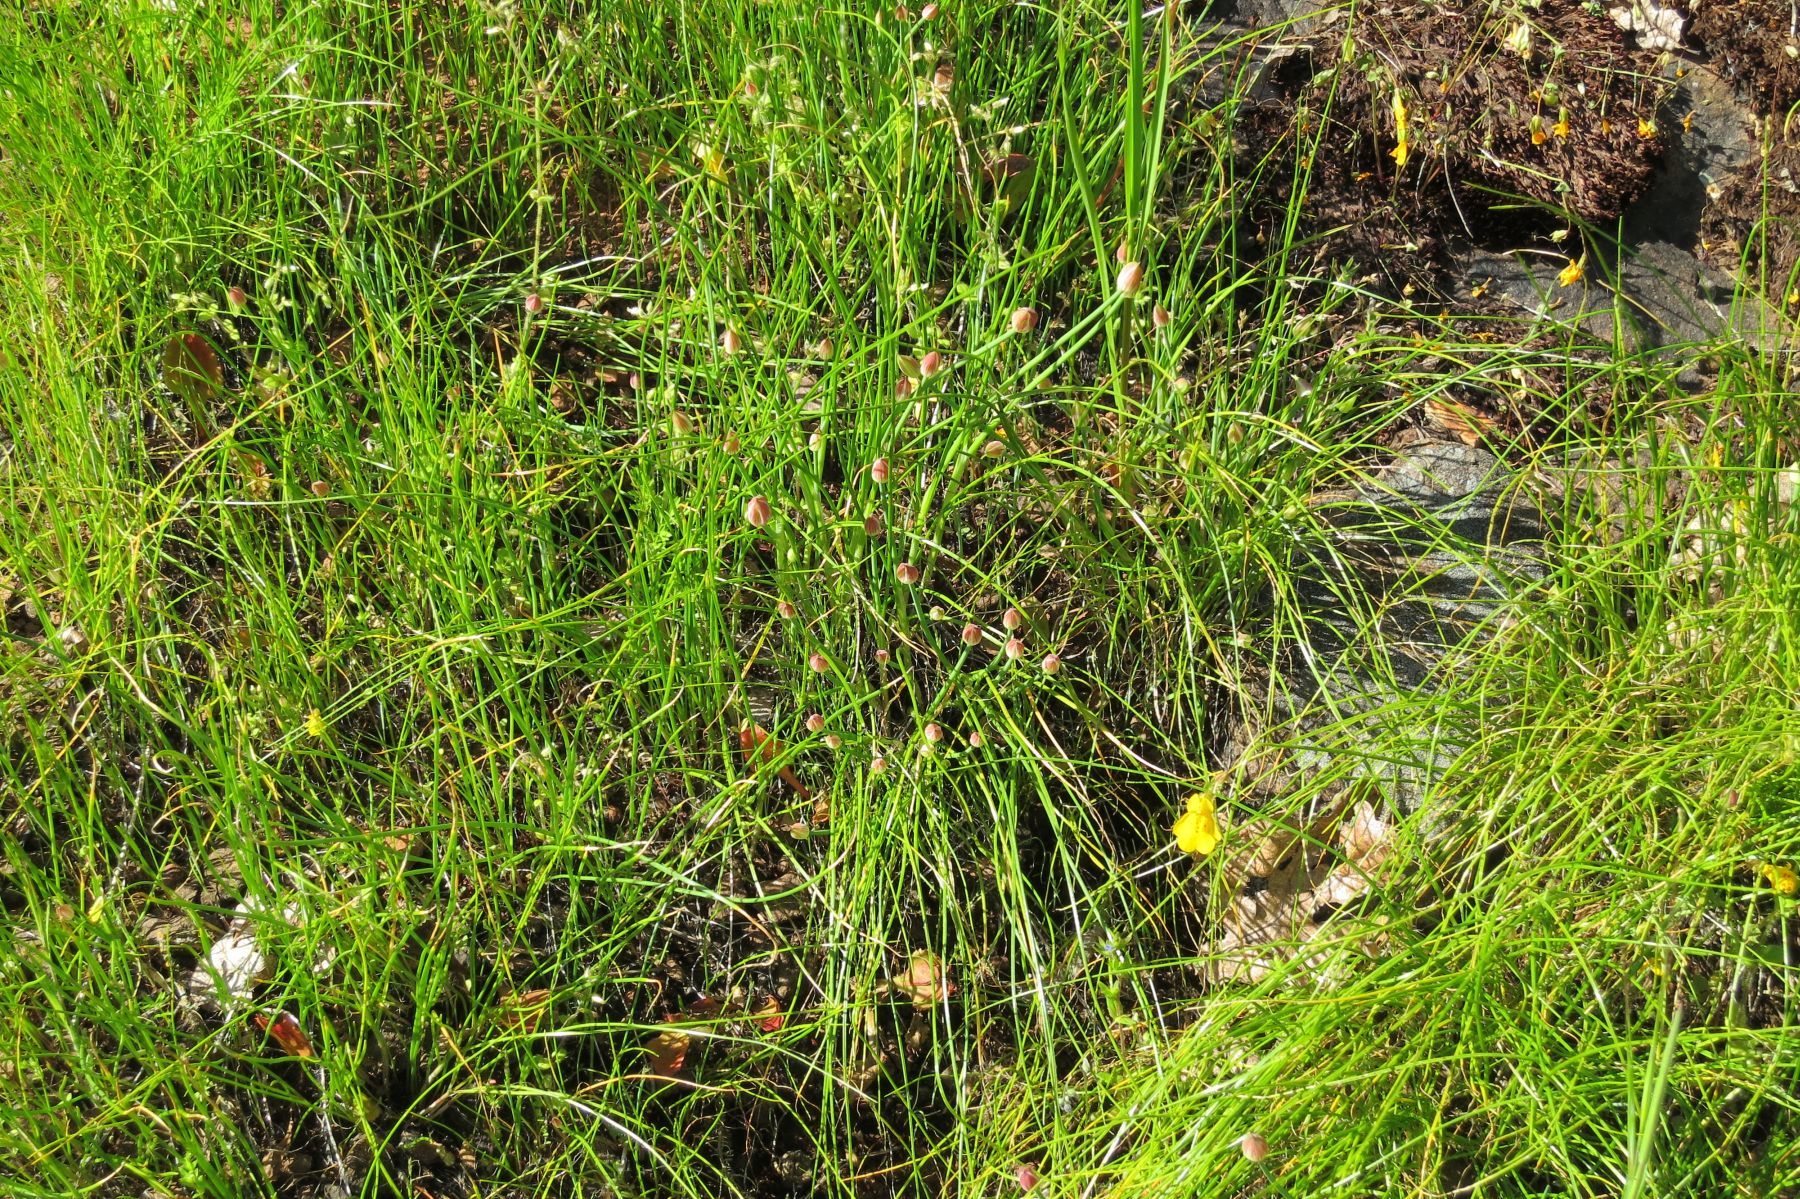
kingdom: Plantae
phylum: Tracheophyta
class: Liliopsida
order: Asparagales
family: Amaryllidaceae
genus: Allium
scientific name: Allium amplectens
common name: Narrow-leaved onion
